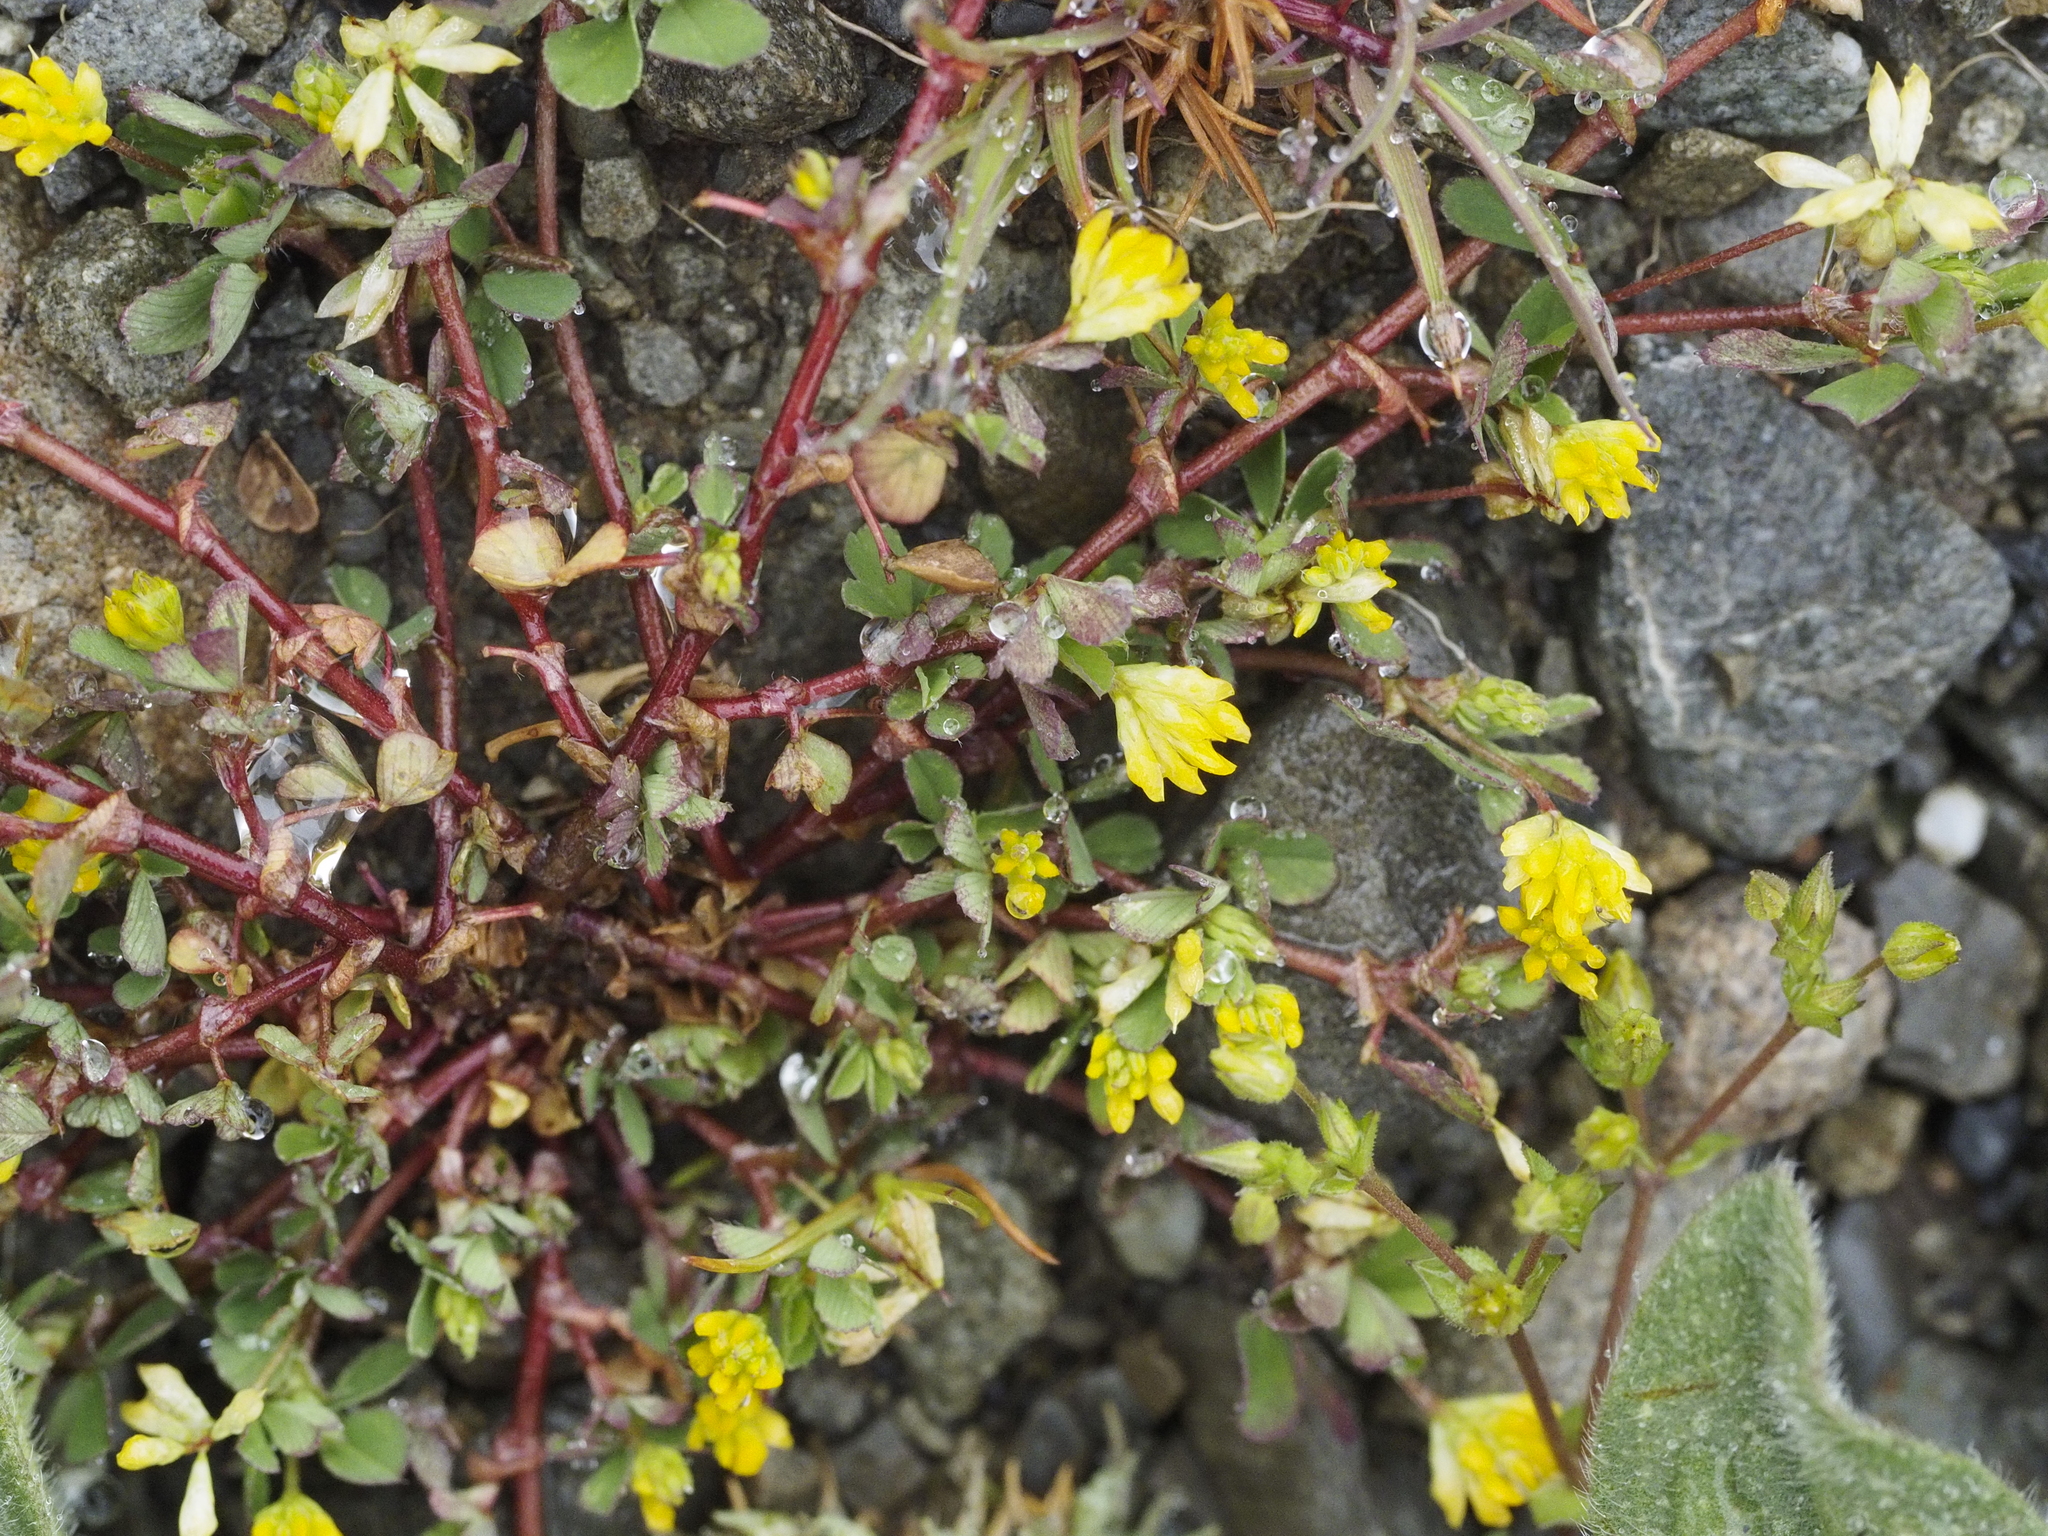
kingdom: Plantae
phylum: Tracheophyta
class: Magnoliopsida
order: Fabales
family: Fabaceae
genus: Trifolium
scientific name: Trifolium dubium
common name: Suckling clover
